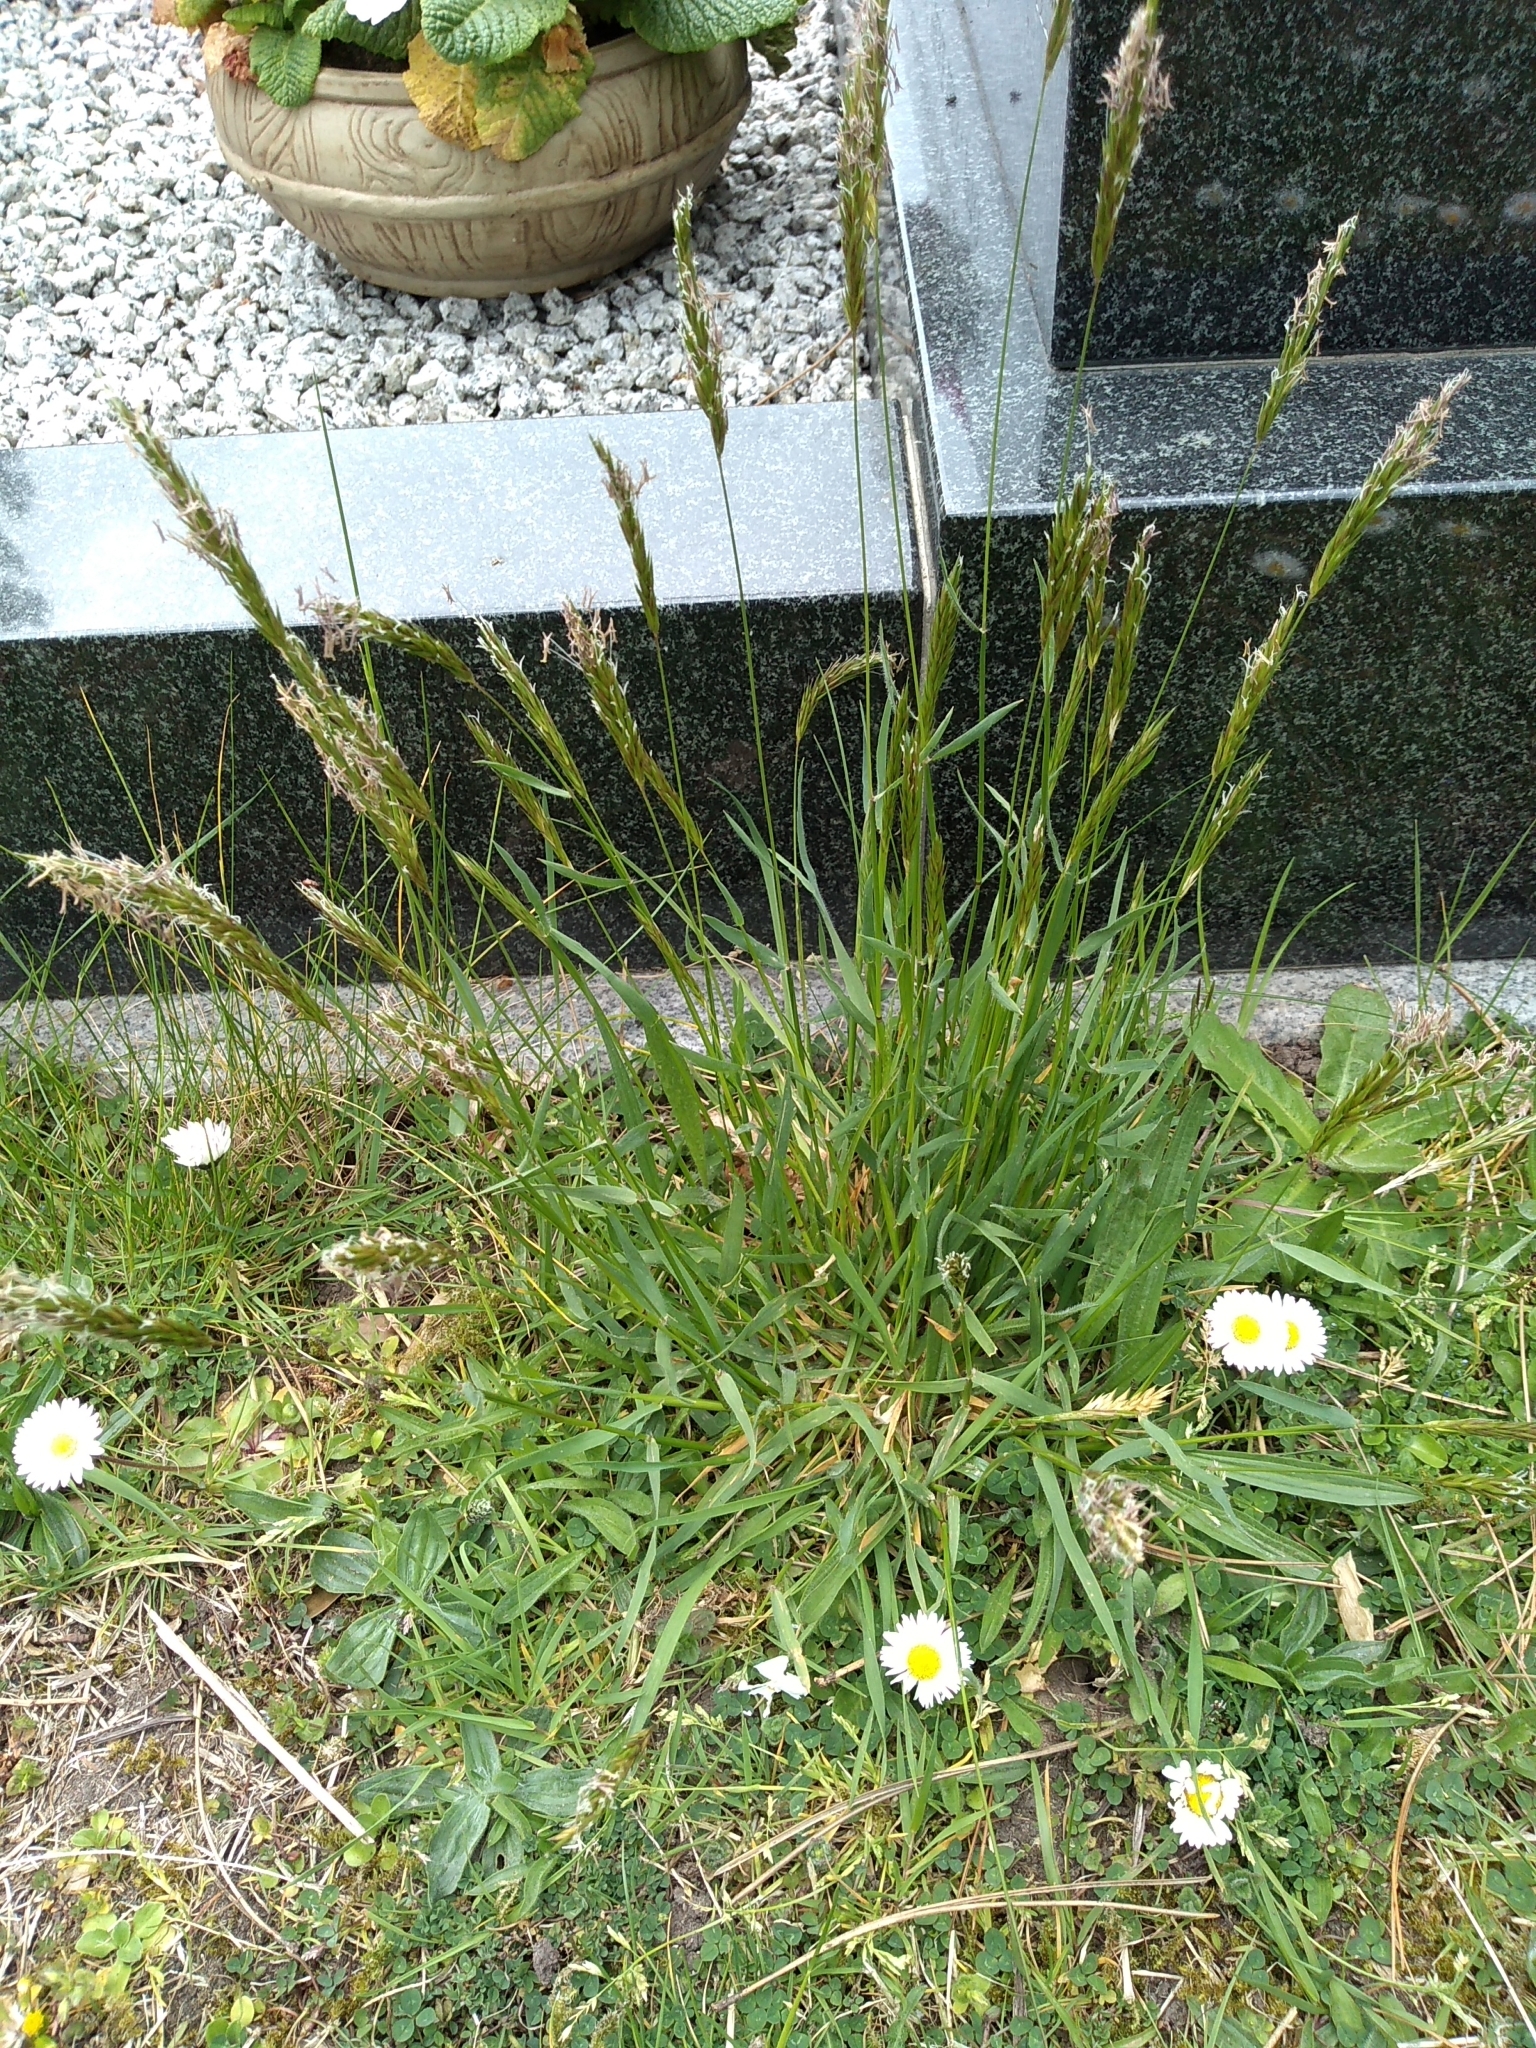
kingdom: Plantae
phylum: Tracheophyta
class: Liliopsida
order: Poales
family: Poaceae
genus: Anthoxanthum
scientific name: Anthoxanthum odoratum
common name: Sweet vernalgrass
